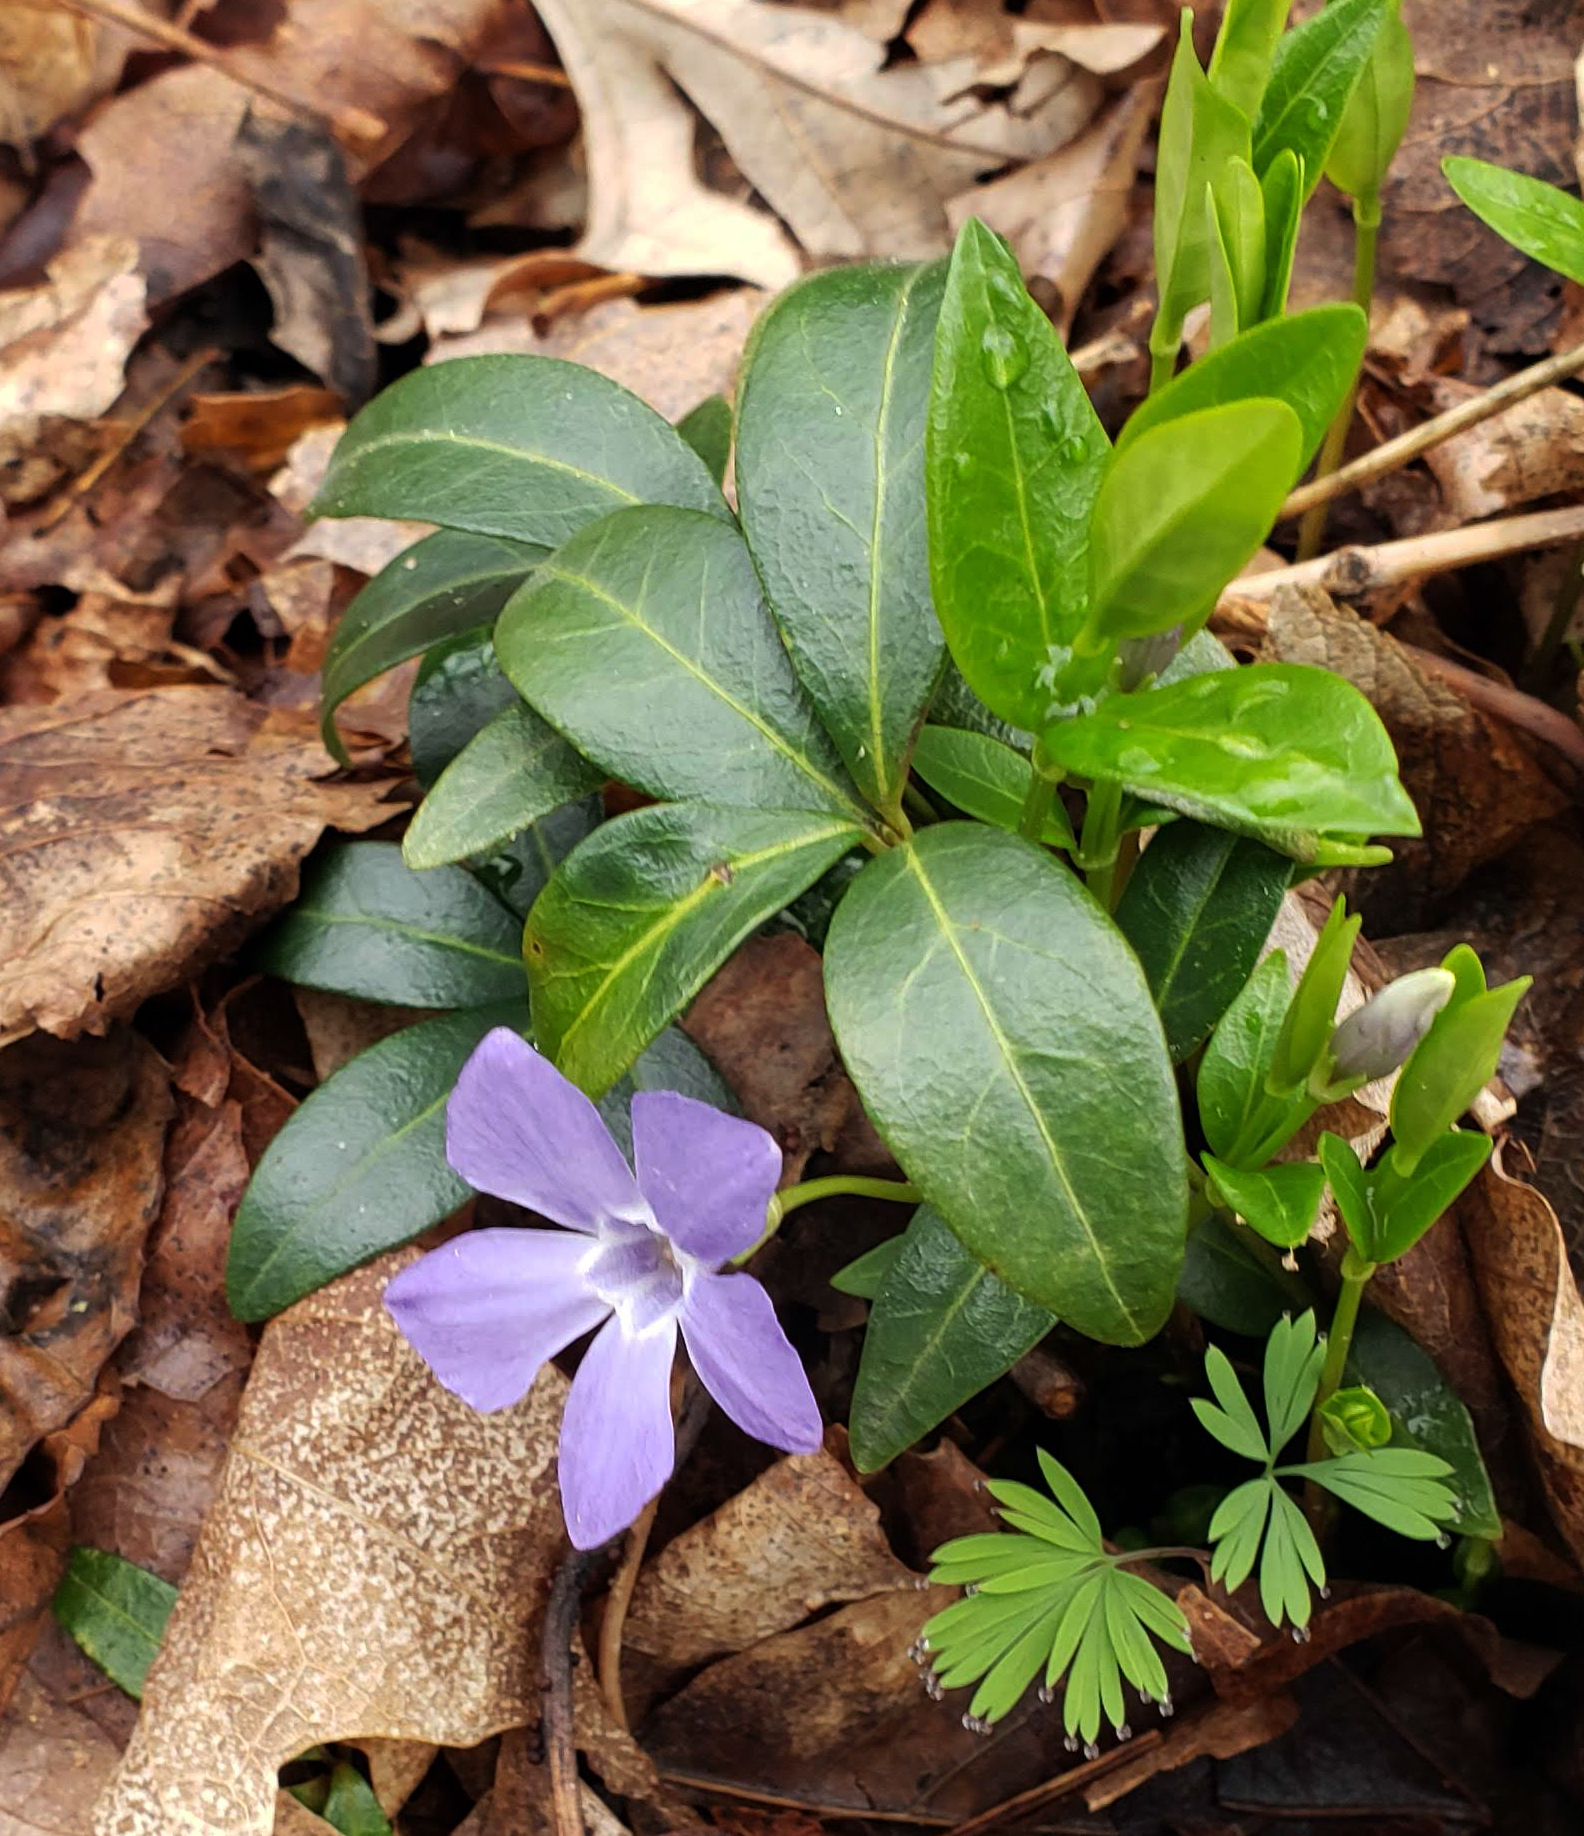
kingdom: Plantae
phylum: Tracheophyta
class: Magnoliopsida
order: Gentianales
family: Apocynaceae
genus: Vinca
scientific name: Vinca minor
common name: Lesser periwinkle
